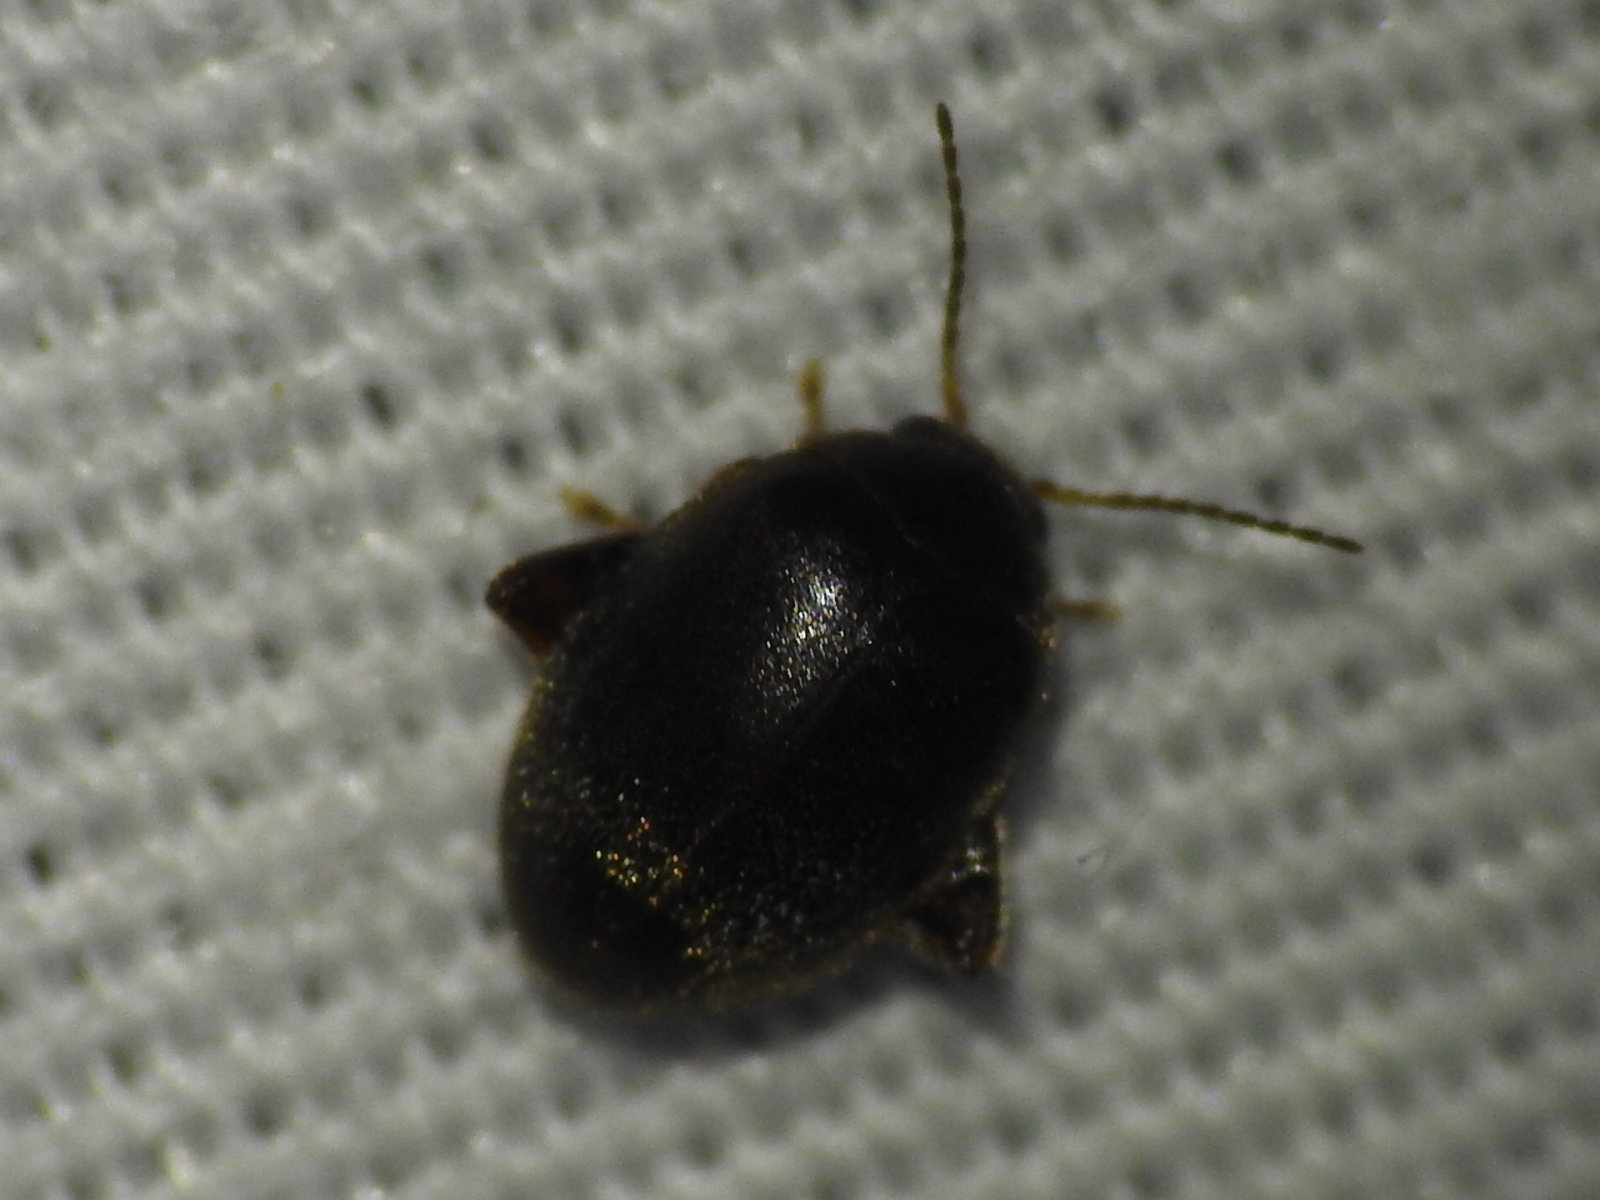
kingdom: Animalia
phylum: Arthropoda
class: Insecta
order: Coleoptera
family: Scirtidae
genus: Scirtes
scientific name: Scirtes tibialis
